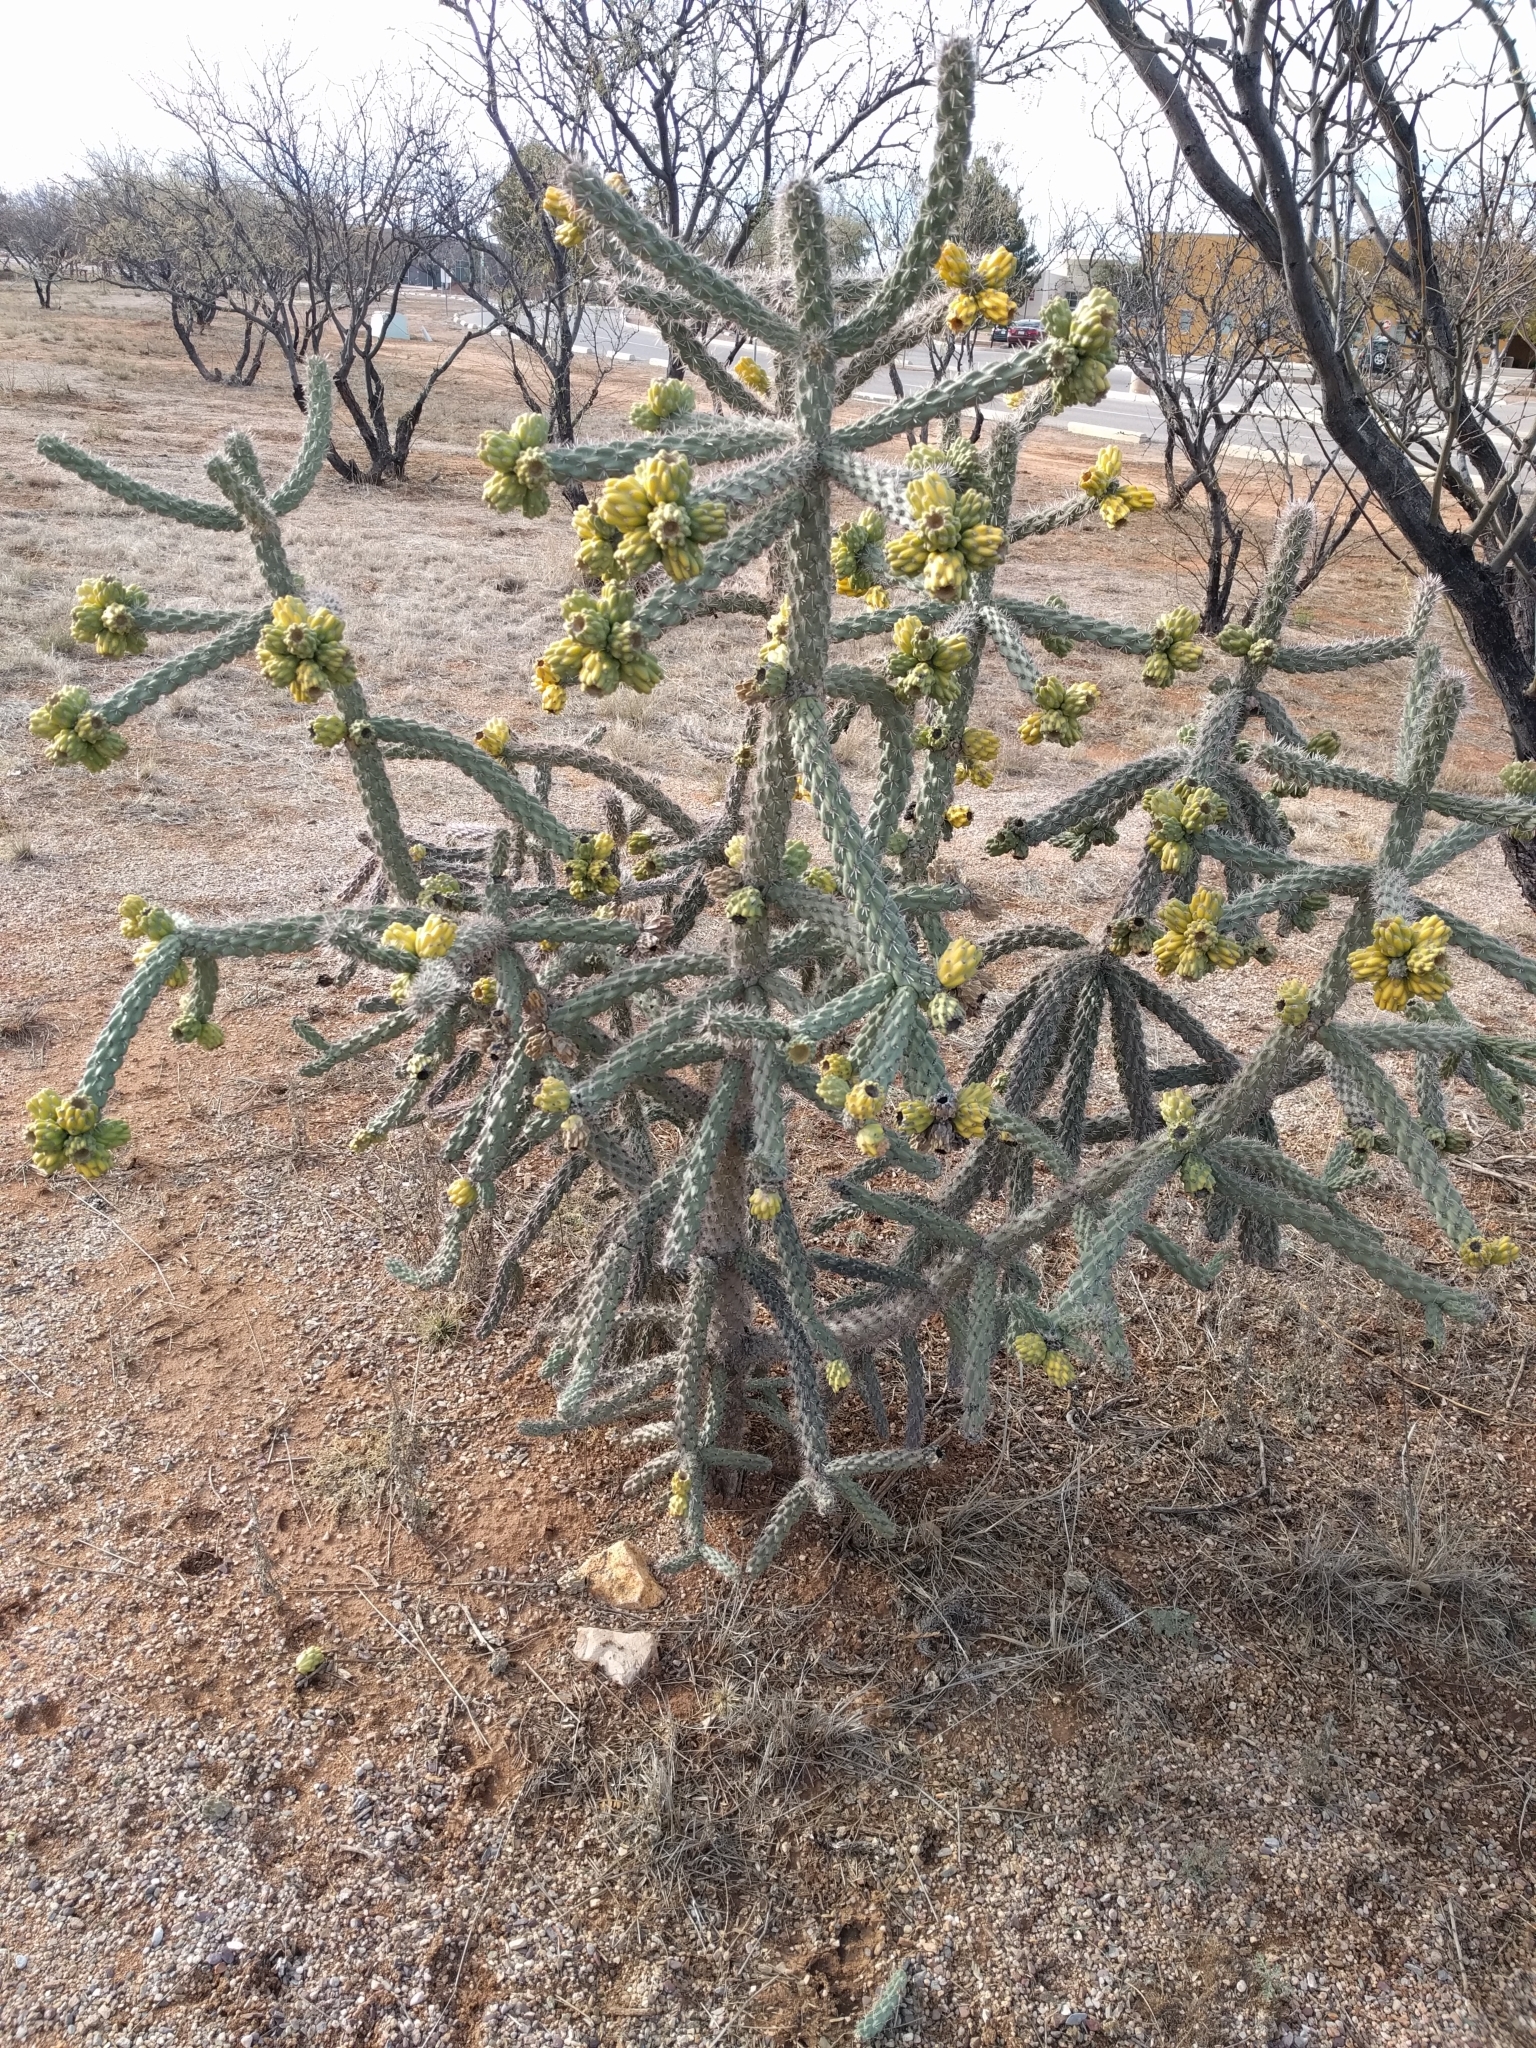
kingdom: Plantae
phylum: Tracheophyta
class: Magnoliopsida
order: Caryophyllales
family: Cactaceae
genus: Cylindropuntia
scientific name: Cylindropuntia imbricata
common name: Candelabrum cactus
